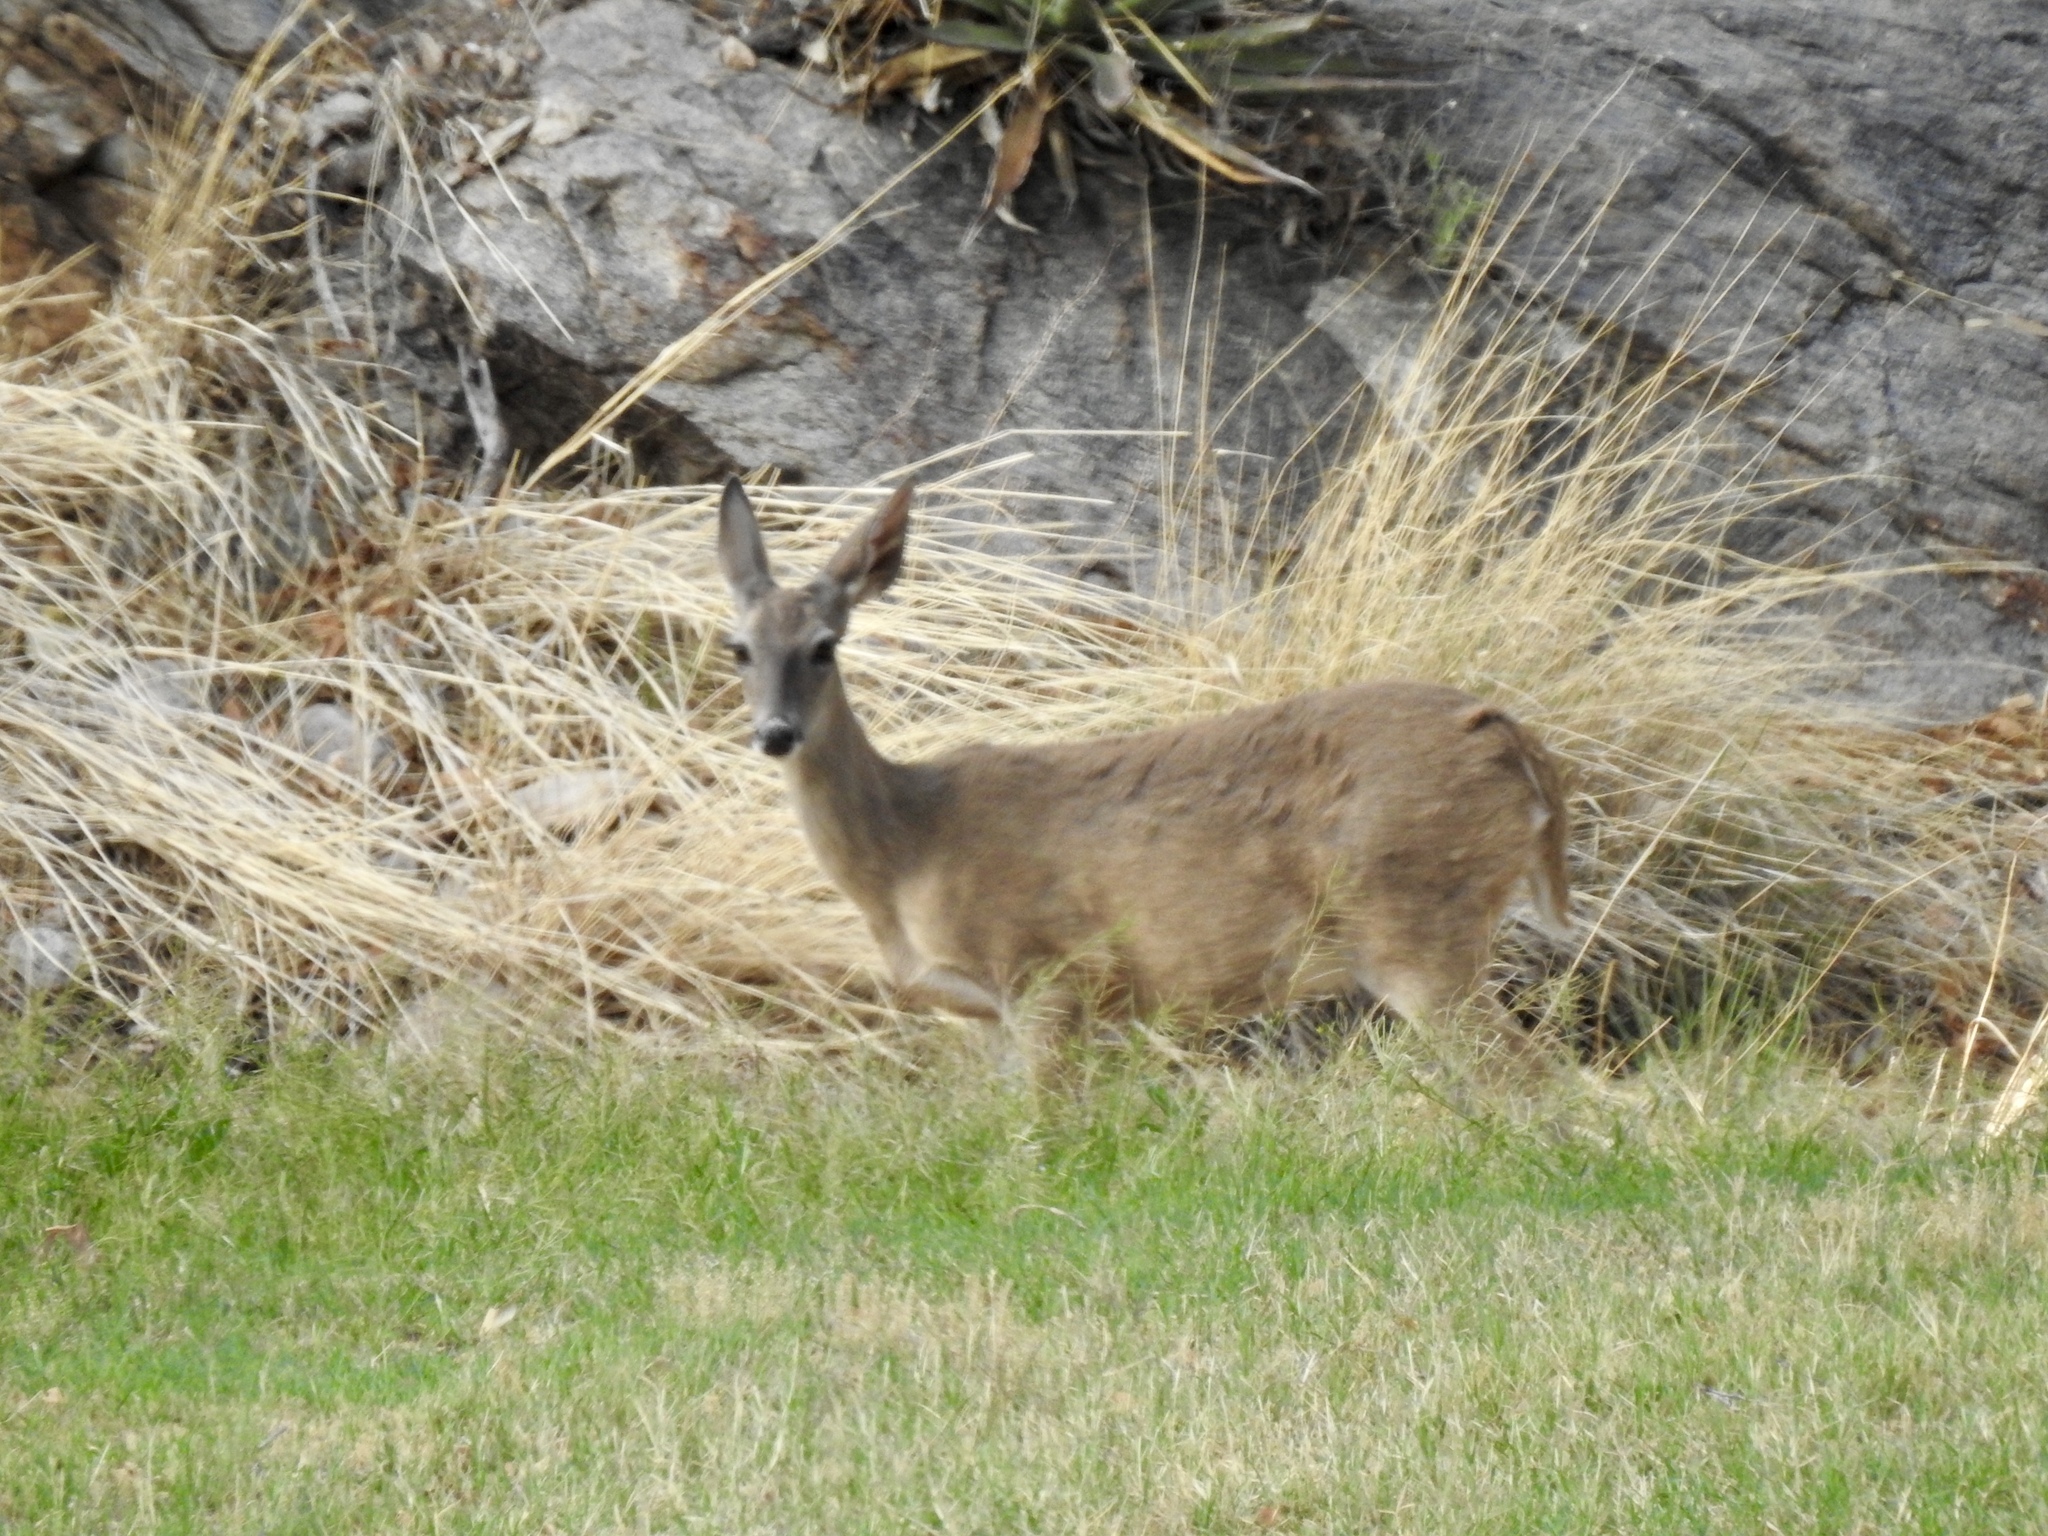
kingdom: Animalia
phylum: Chordata
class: Mammalia
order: Artiodactyla
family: Cervidae
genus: Odocoileus
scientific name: Odocoileus virginianus
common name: White-tailed deer
